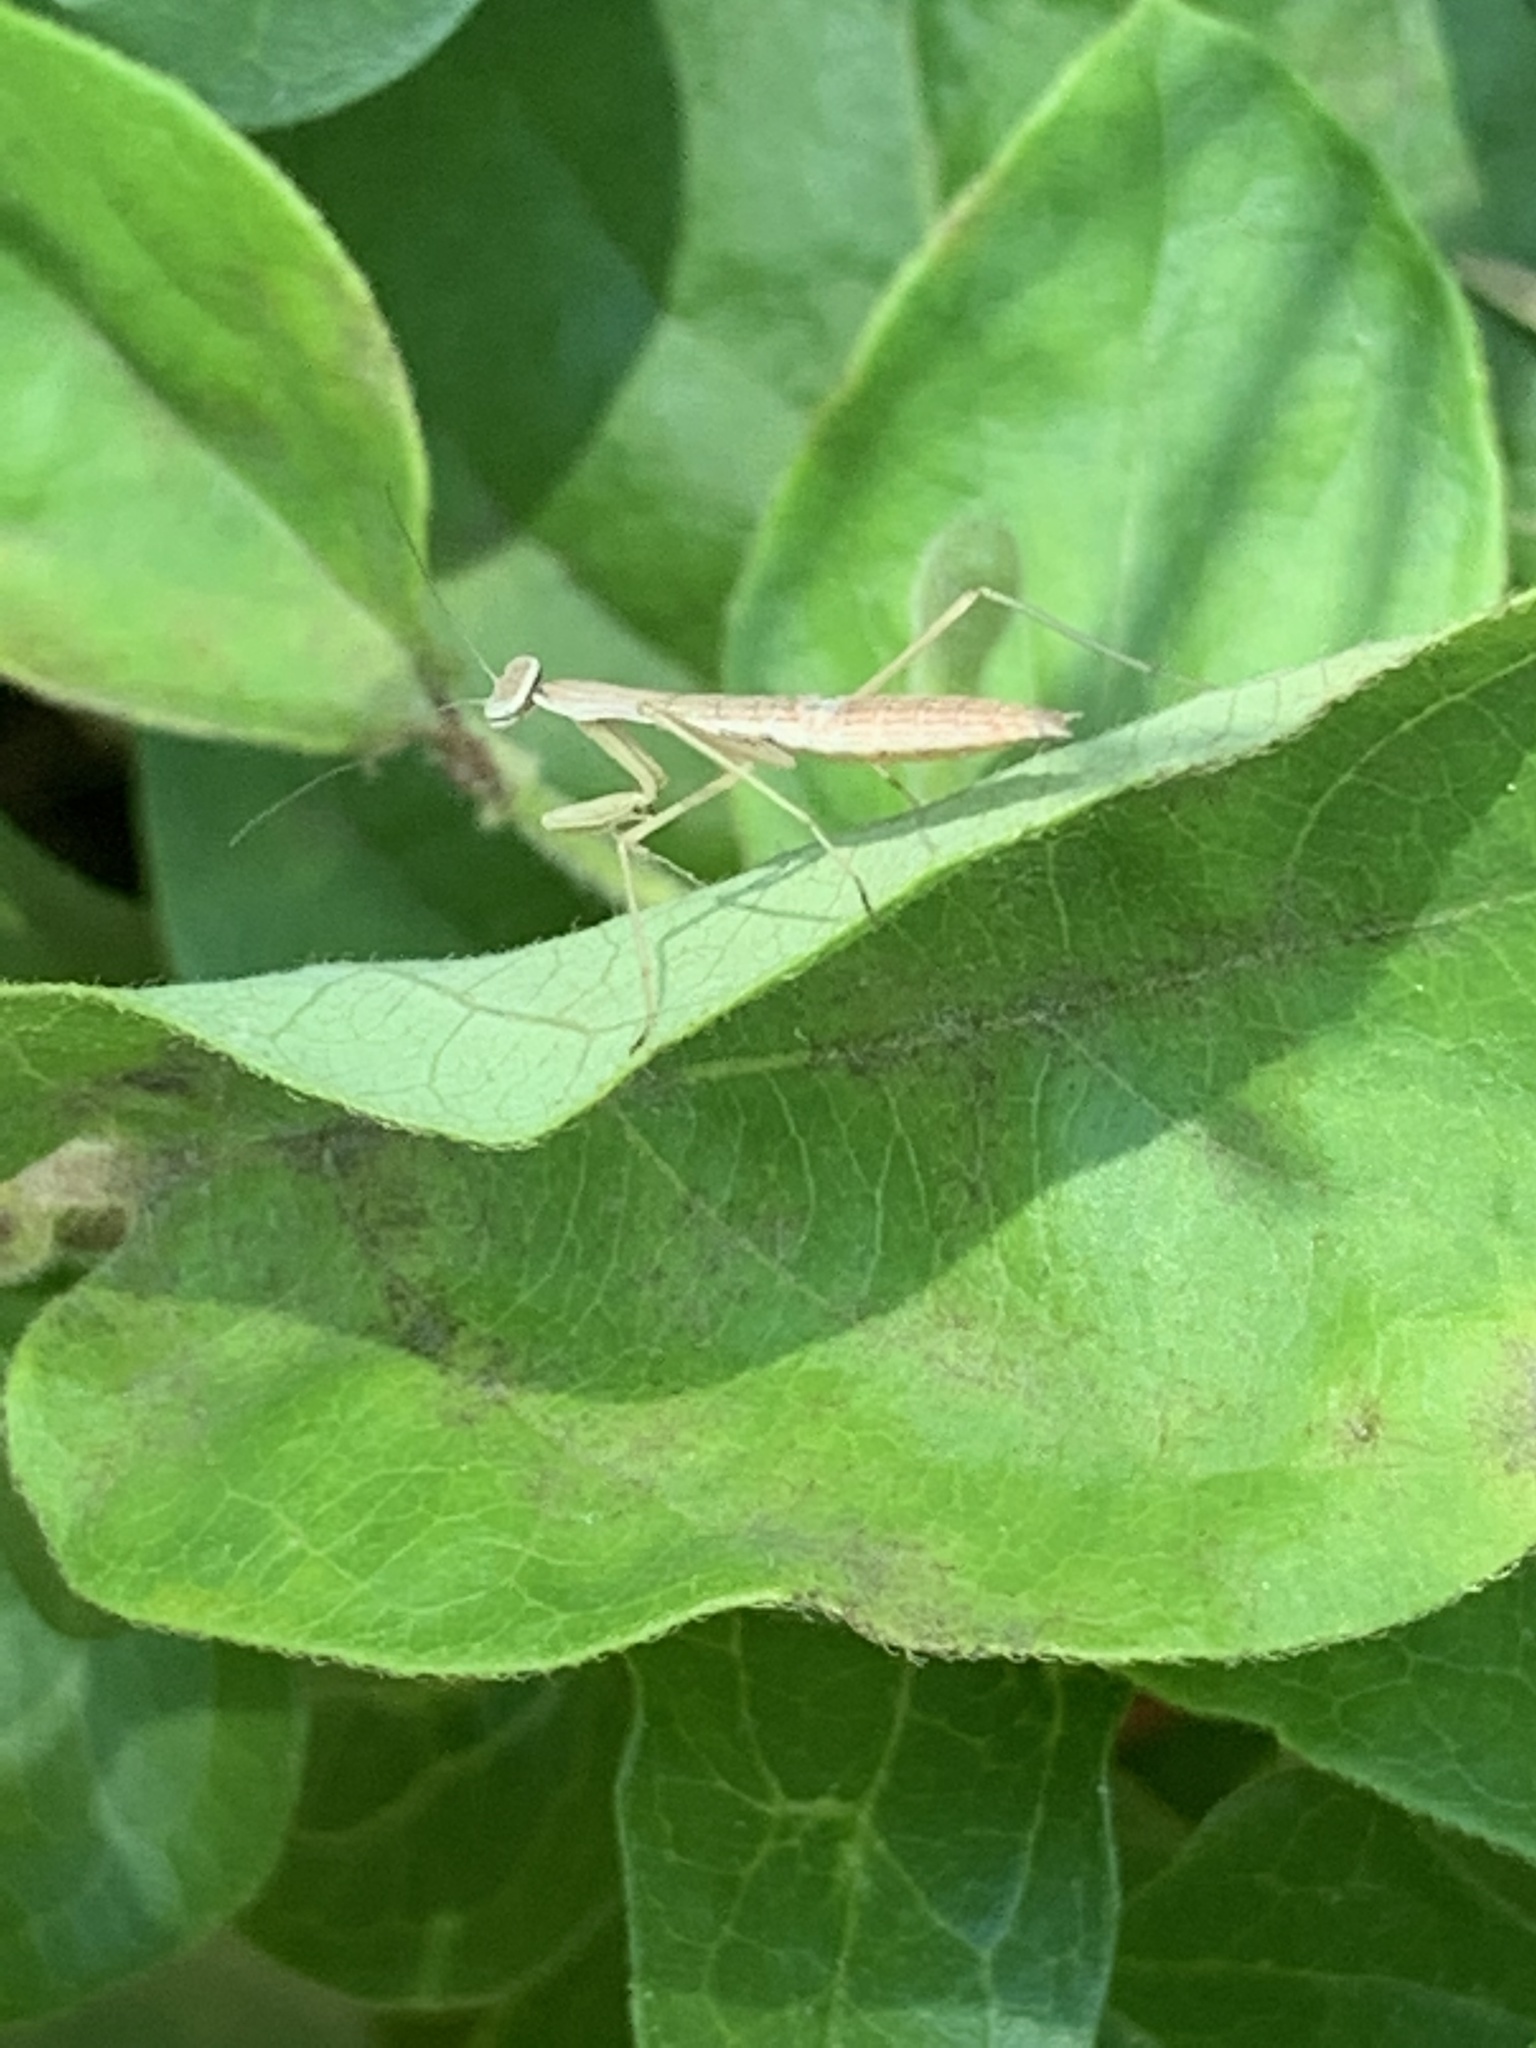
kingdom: Animalia
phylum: Arthropoda
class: Insecta
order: Mantodea
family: Mantidae
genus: Tenodera
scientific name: Tenodera sinensis
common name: Chinese mantis
